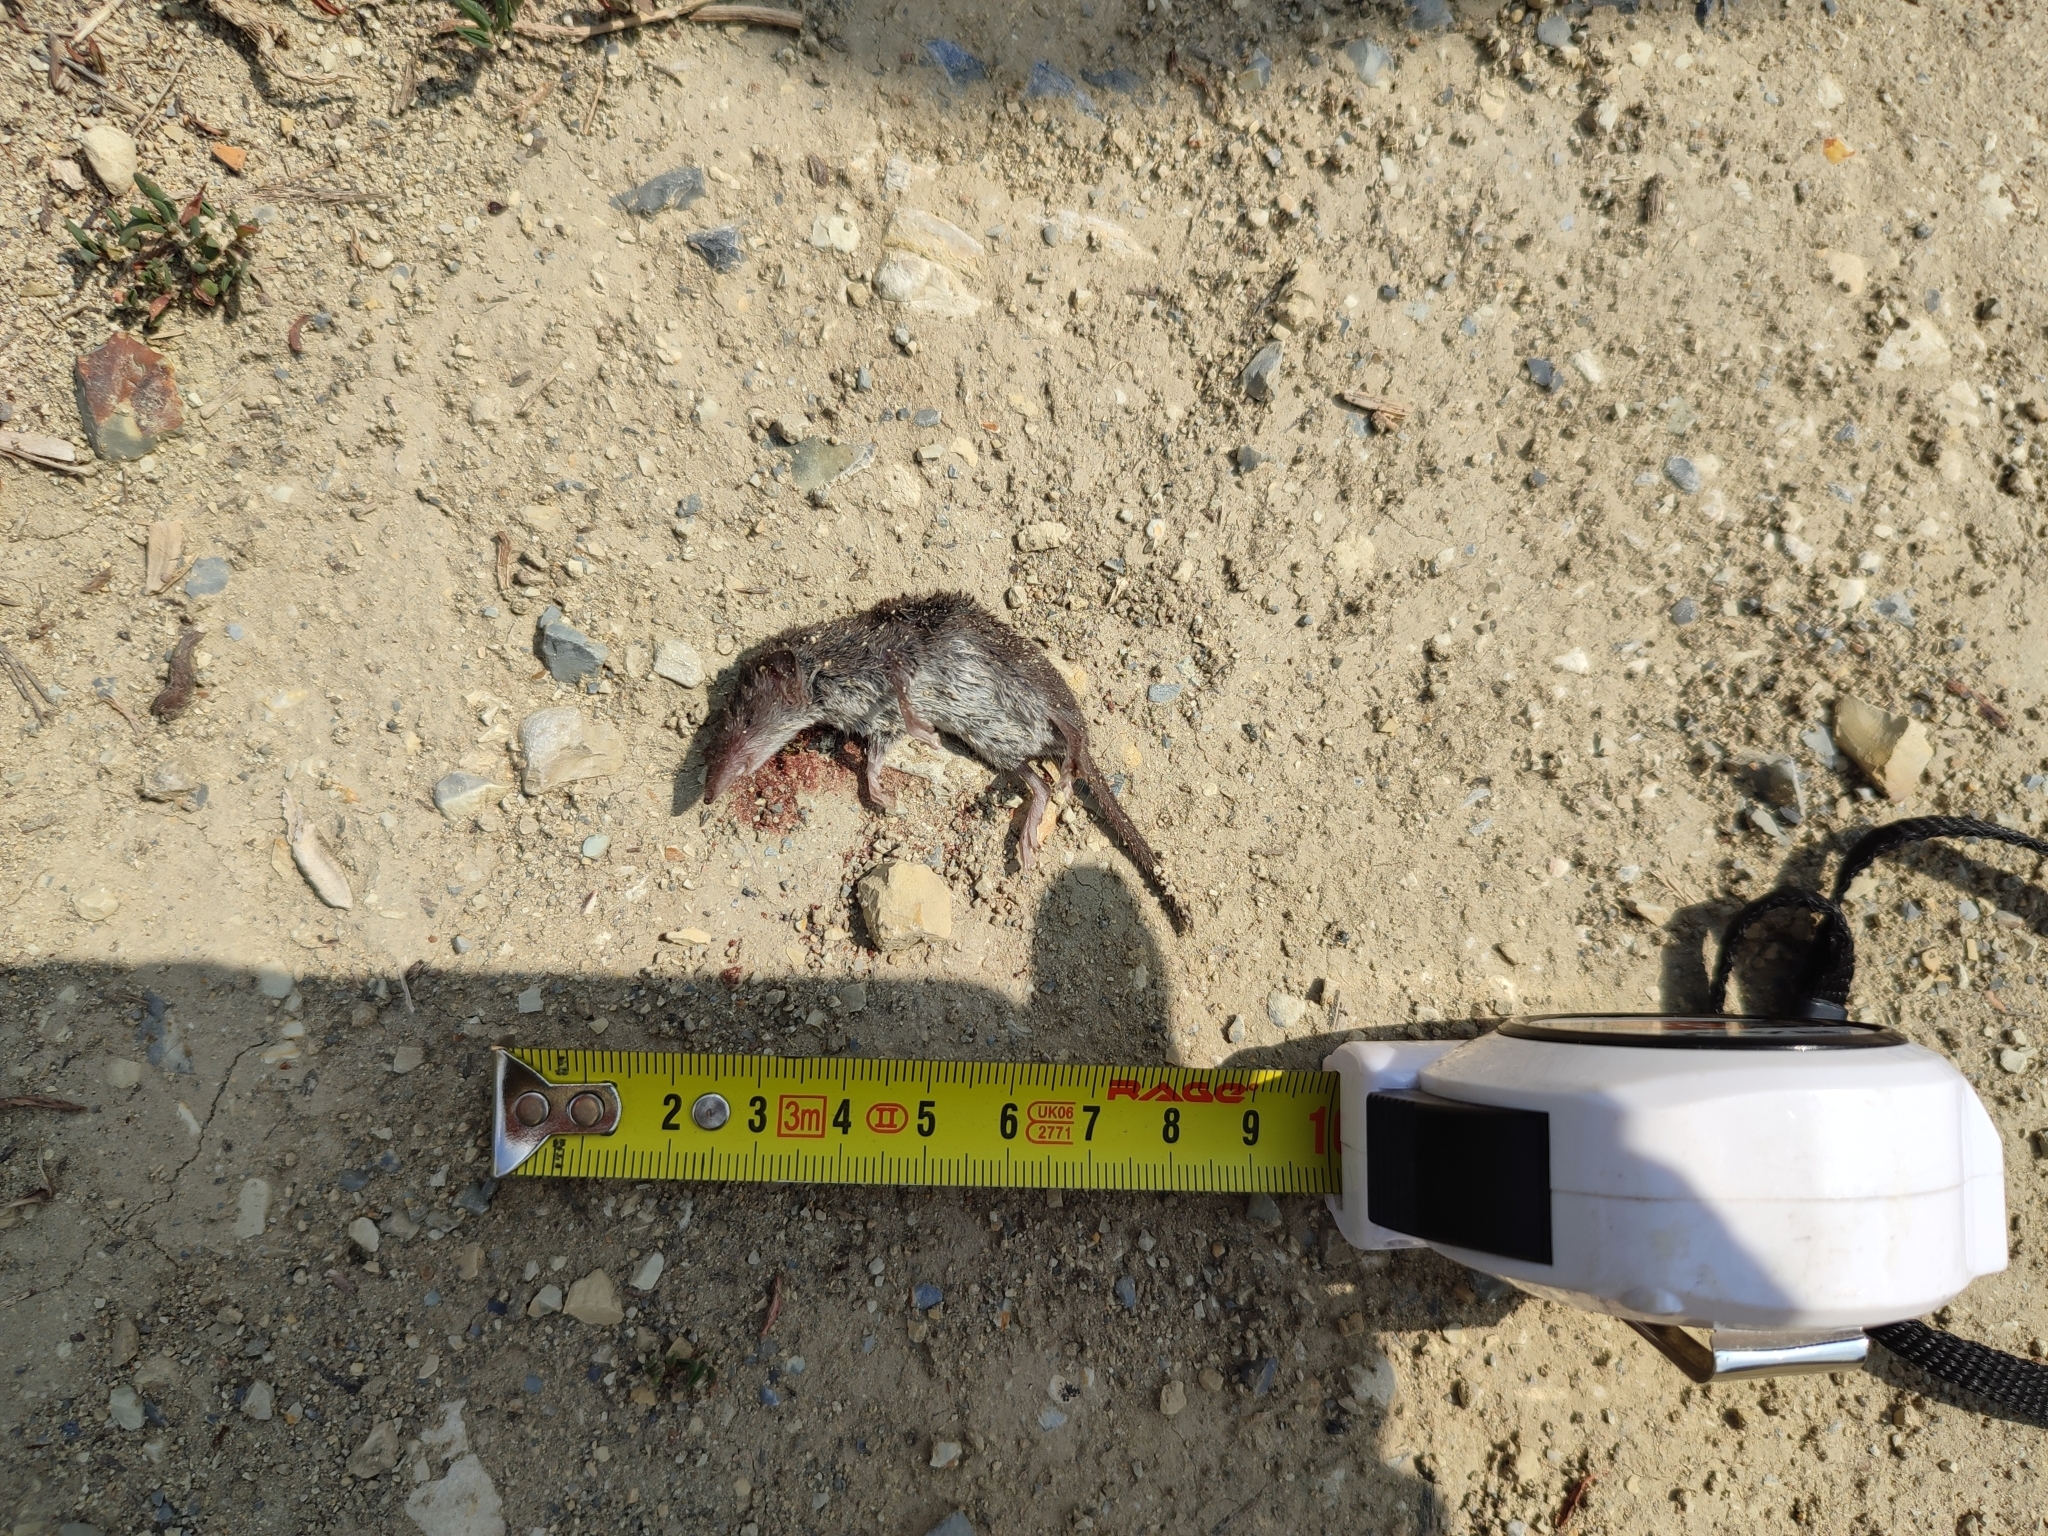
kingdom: Animalia
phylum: Chordata
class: Mammalia
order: Soricomorpha
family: Soricidae
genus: Crocidura
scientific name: Crocidura suaveolens
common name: Lesser white-toothed shrew
